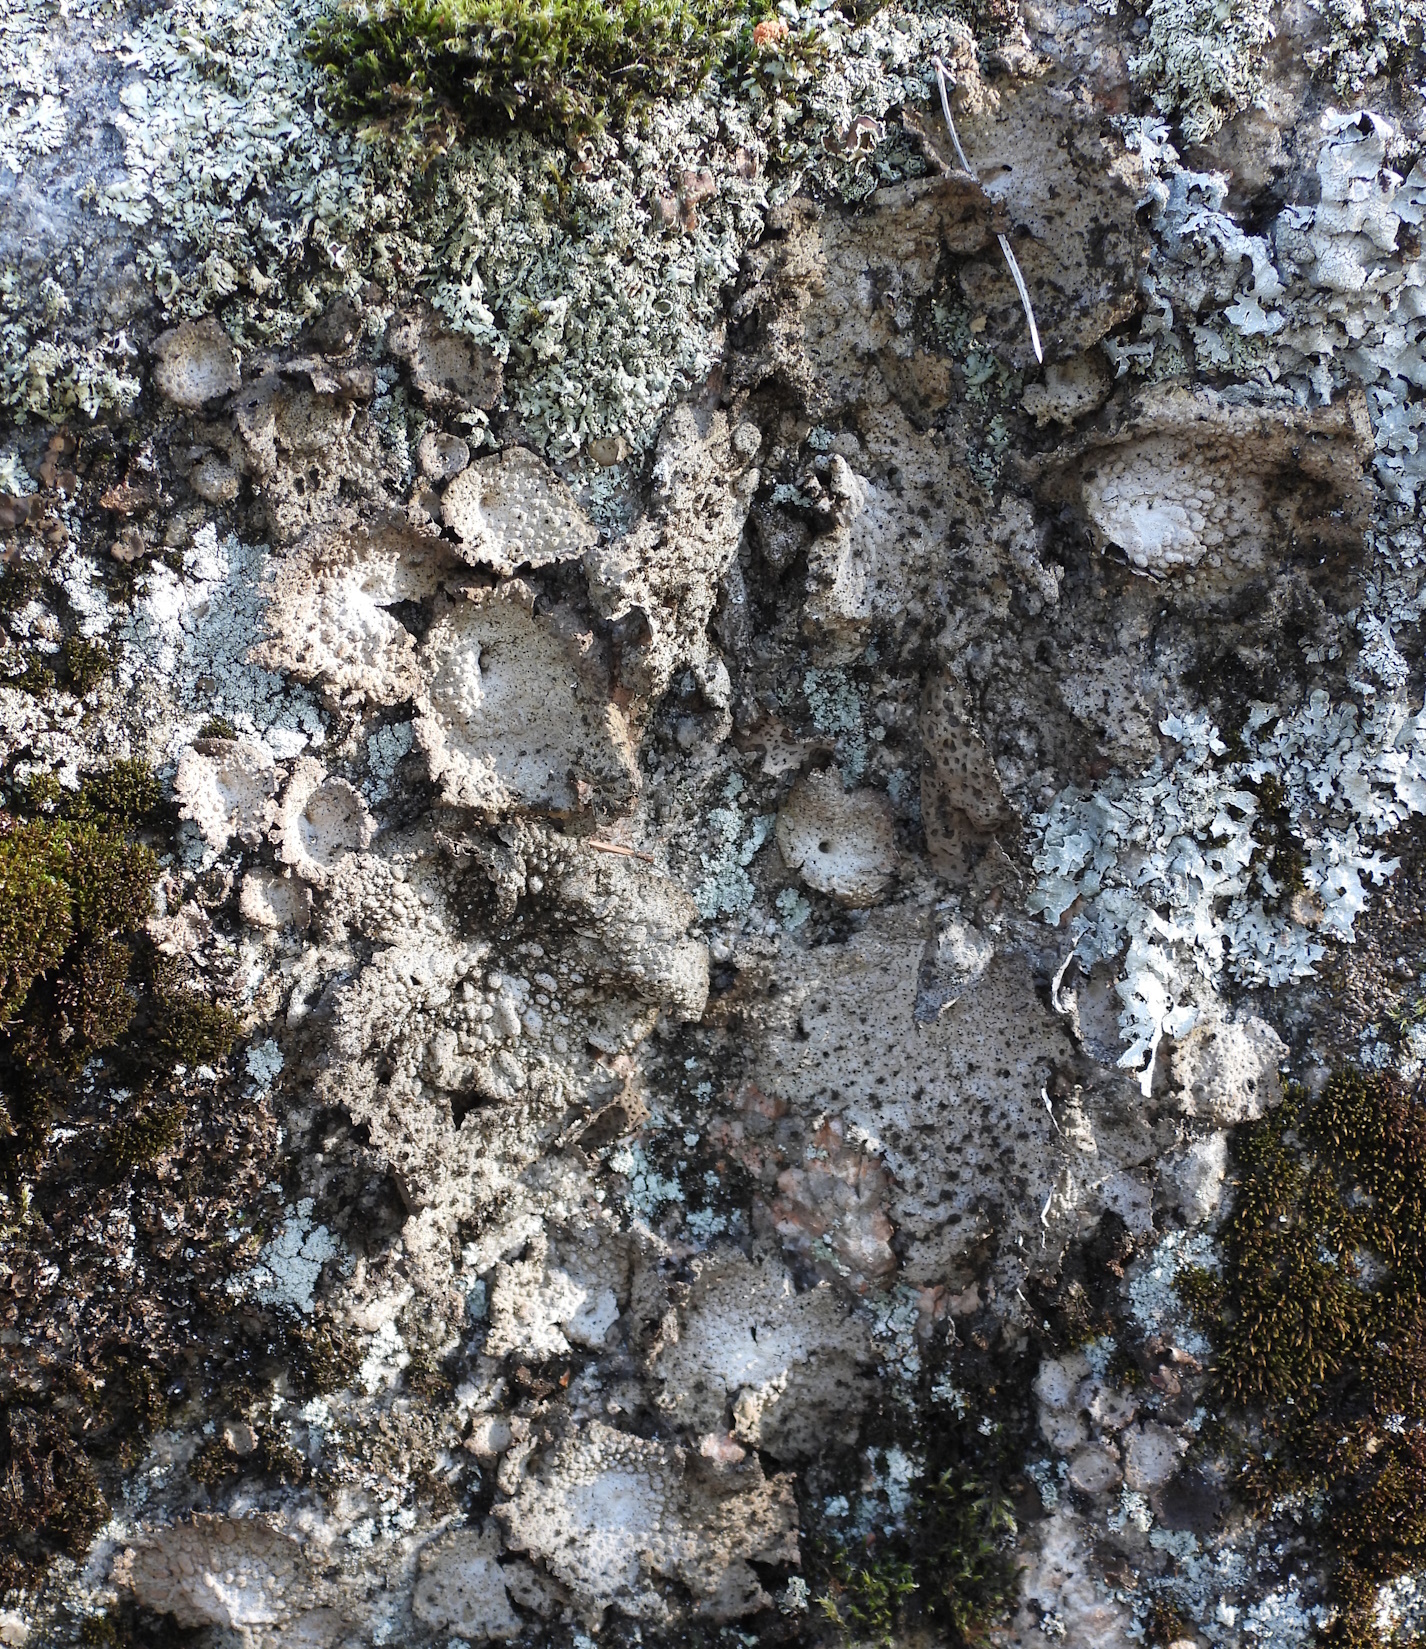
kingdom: Fungi
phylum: Ascomycota
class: Lecanoromycetes
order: Umbilicariales
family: Umbilicariaceae
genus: Lasallia
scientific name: Lasallia pustulata
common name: Blistered toadskin lichen
